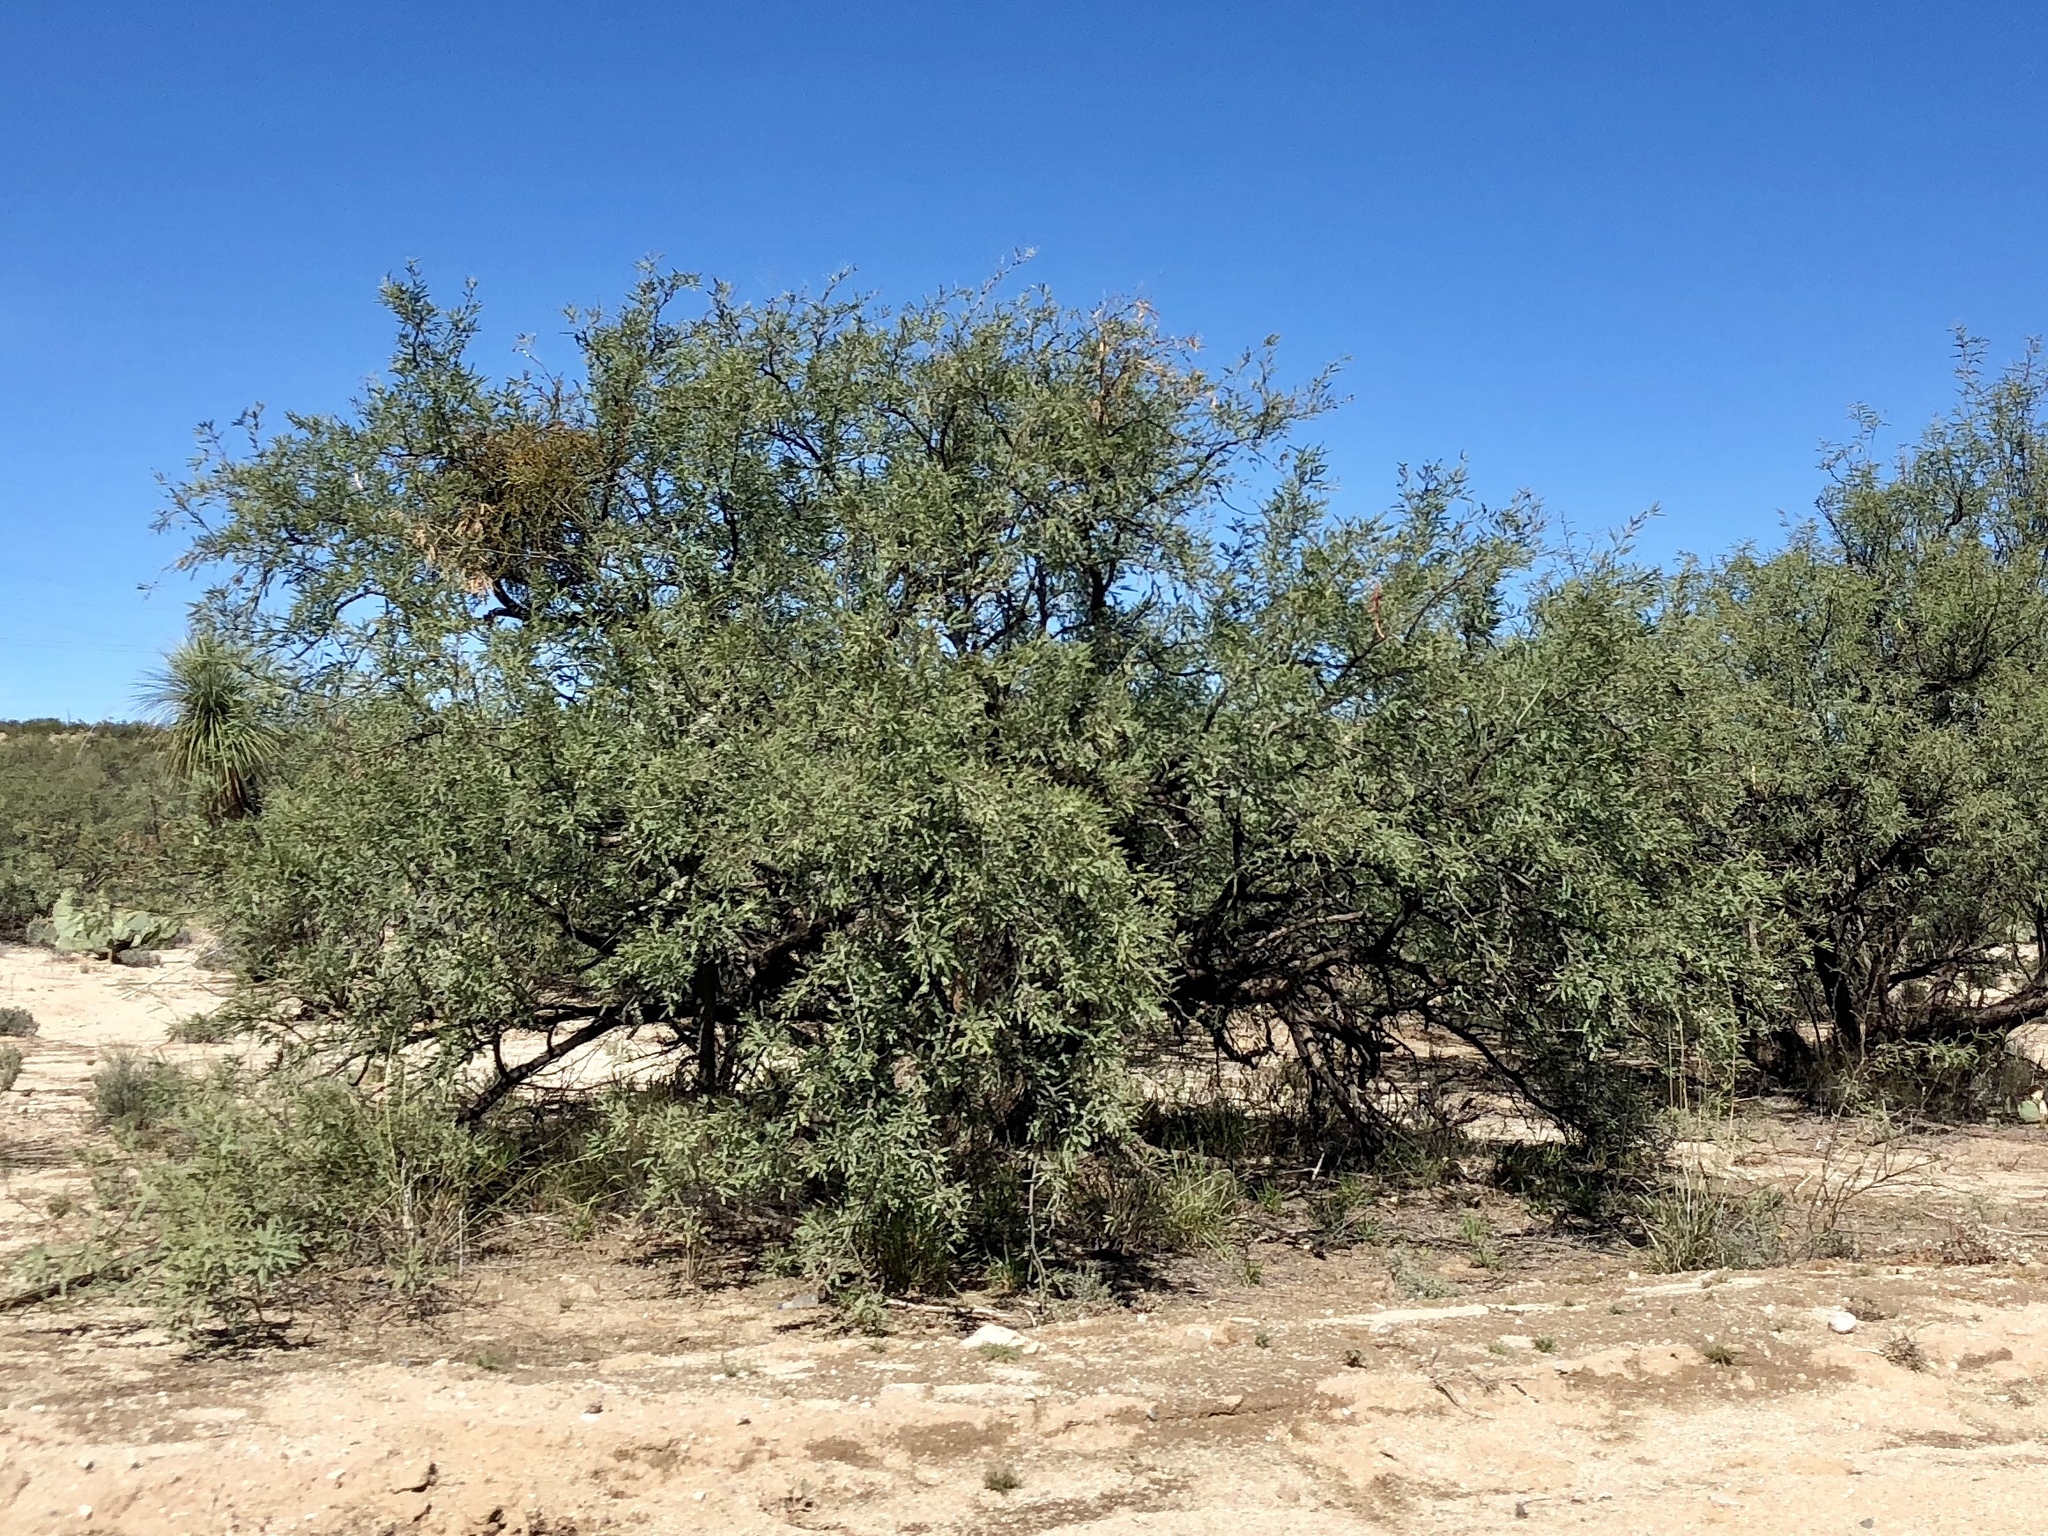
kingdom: Plantae
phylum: Tracheophyta
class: Magnoliopsida
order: Fabales
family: Fabaceae
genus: Prosopis
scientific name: Prosopis velutina
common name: Velvet mesquite
